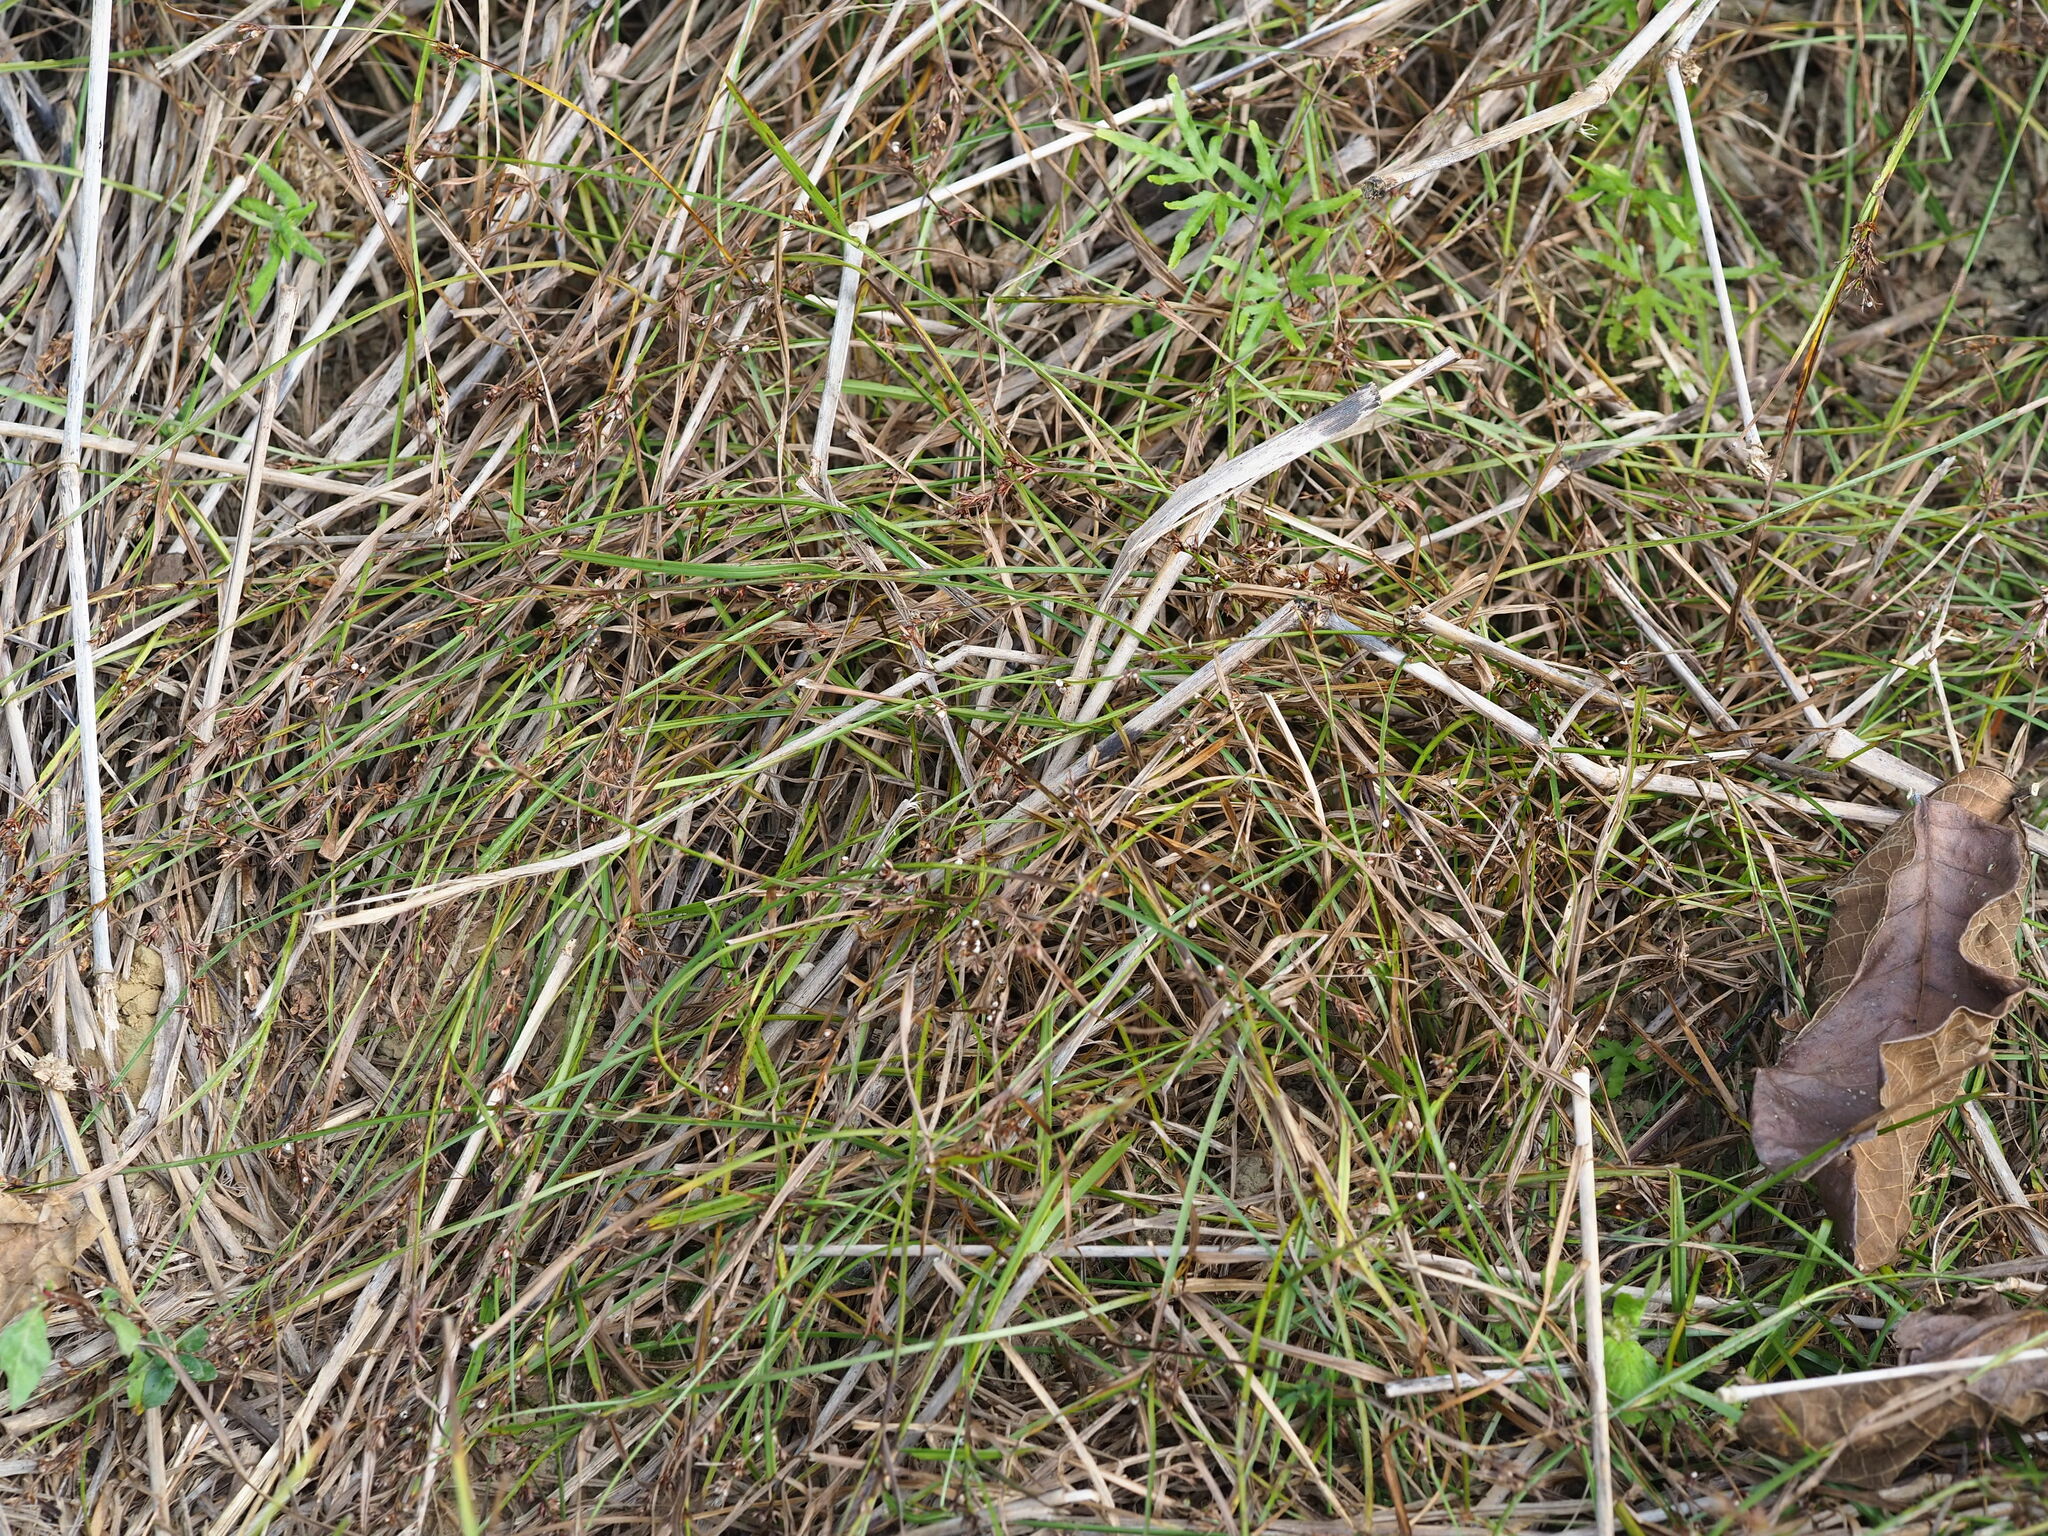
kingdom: Plantae
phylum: Tracheophyta
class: Liliopsida
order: Poales
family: Cyperaceae
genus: Scleria
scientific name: Scleria biflora
